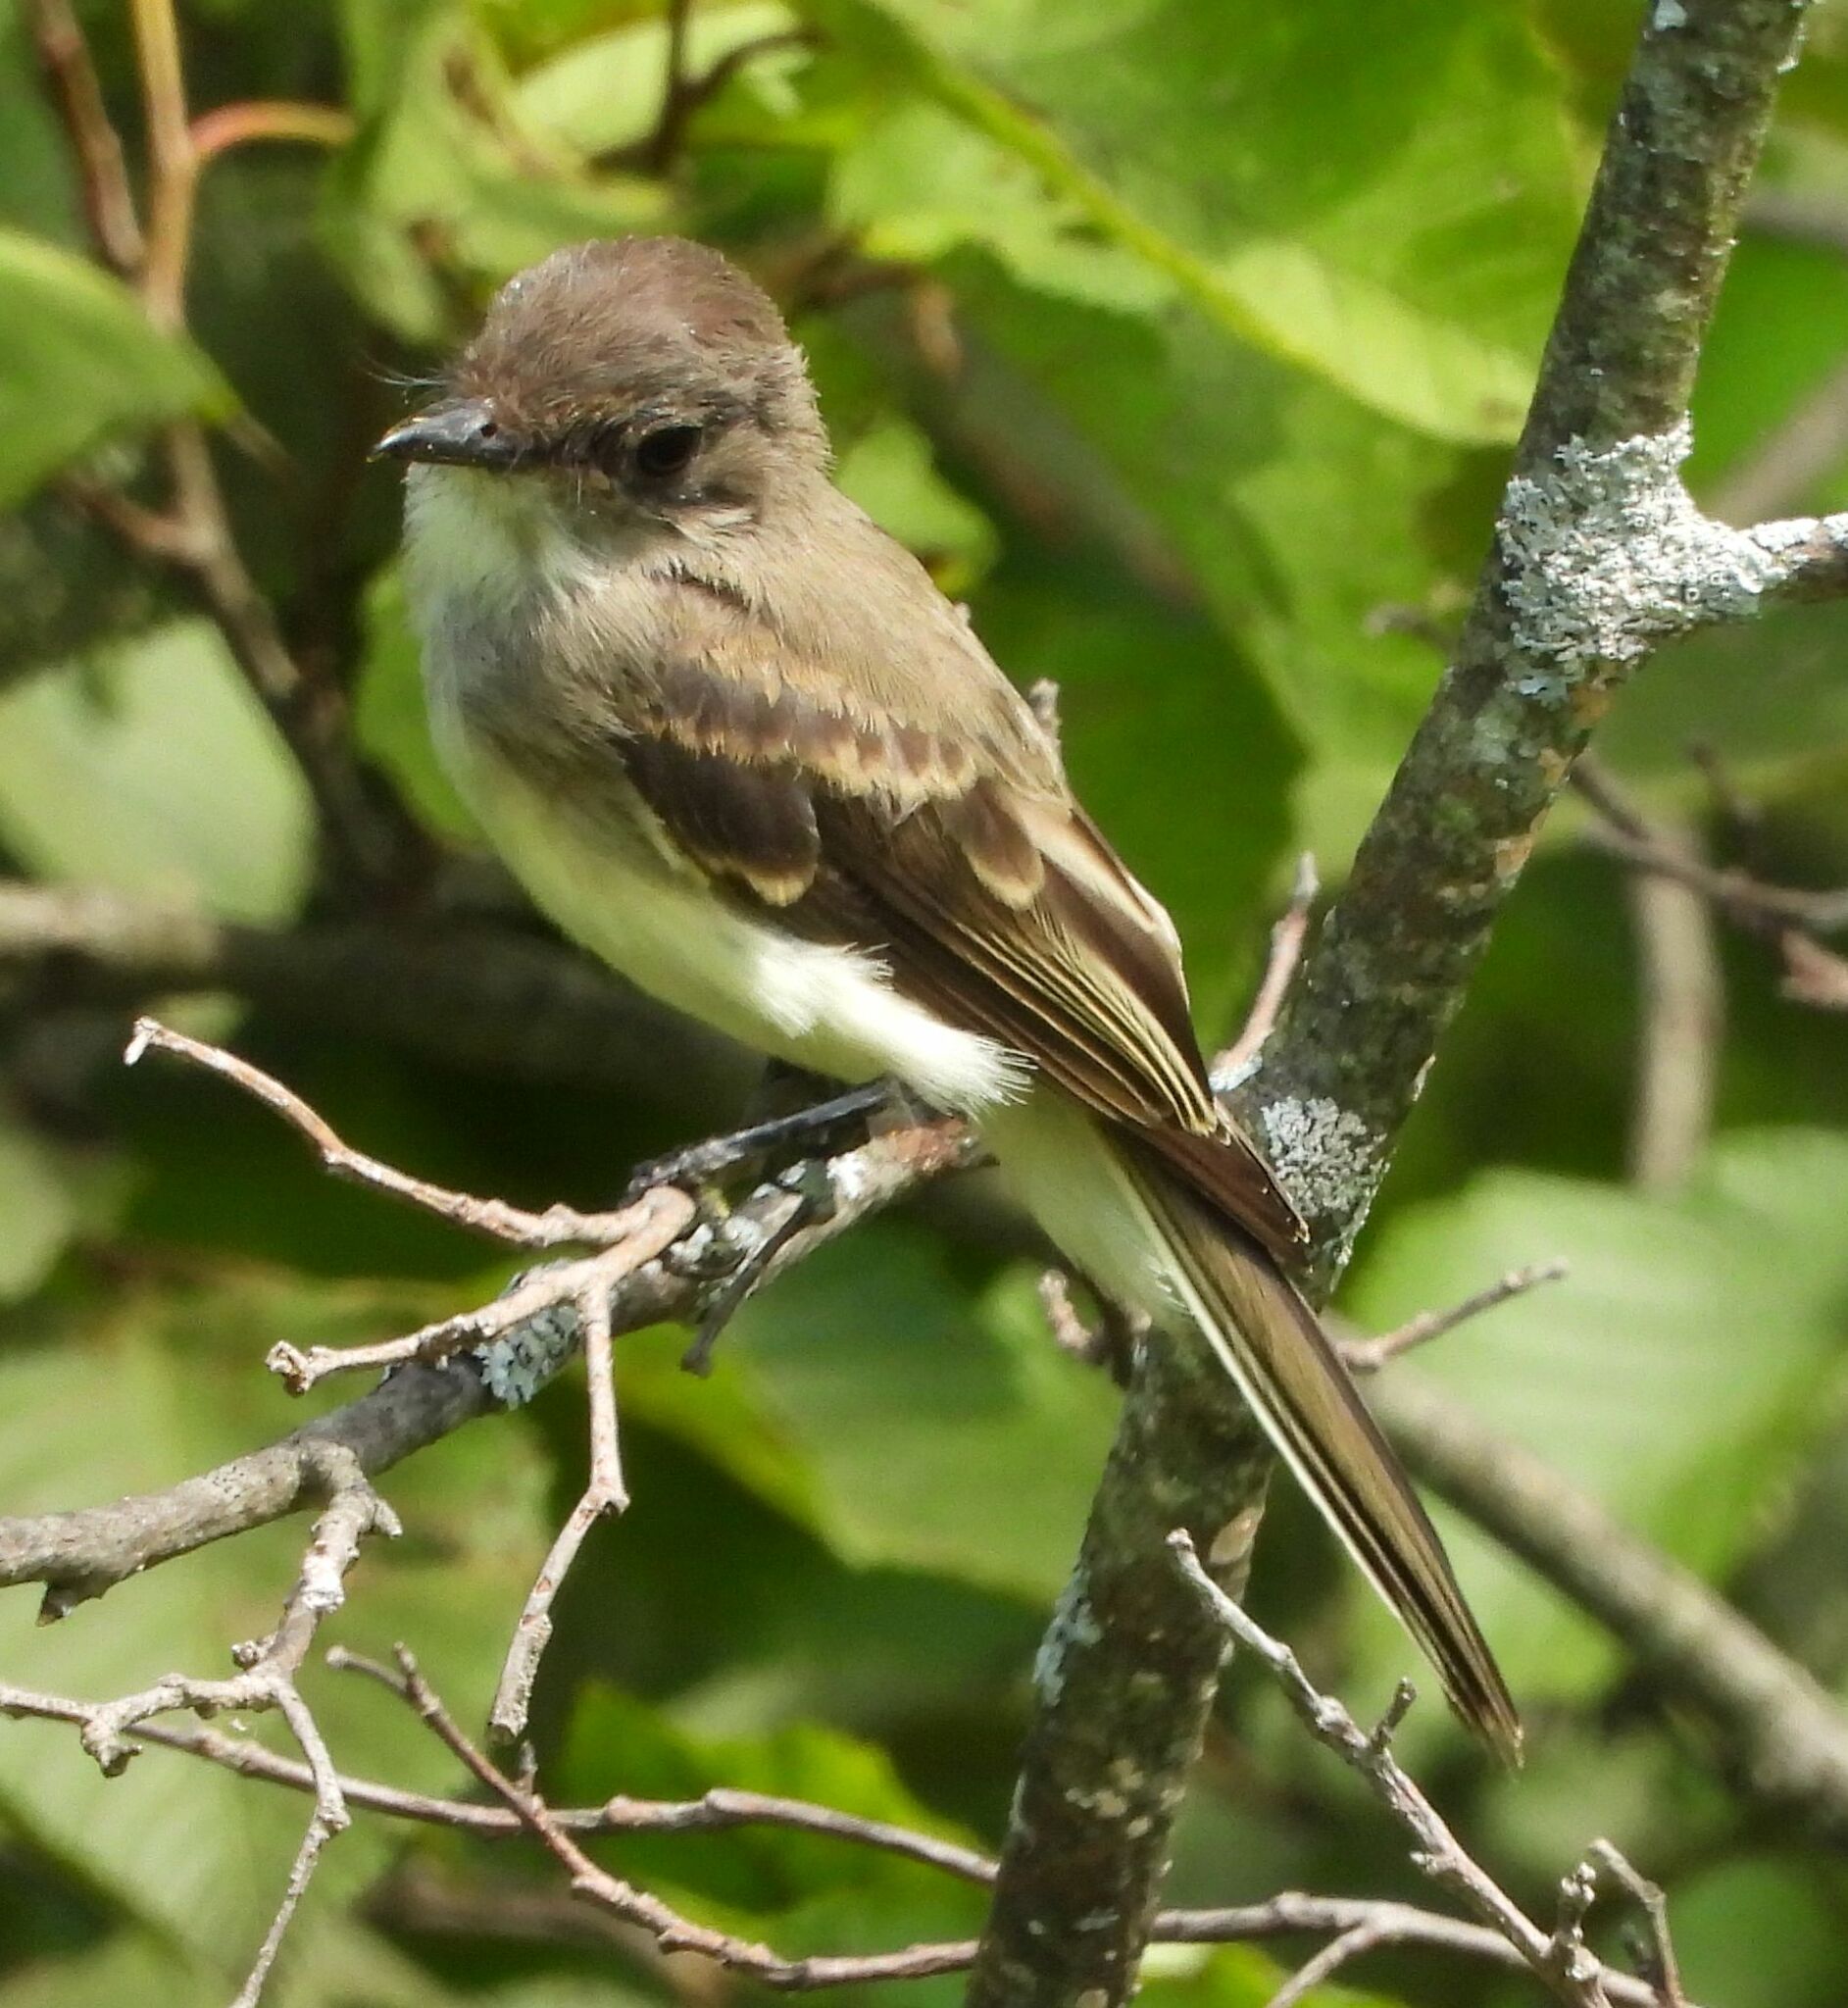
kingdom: Animalia
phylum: Chordata
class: Aves
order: Passeriformes
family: Tyrannidae
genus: Sayornis
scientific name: Sayornis phoebe
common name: Eastern phoebe
